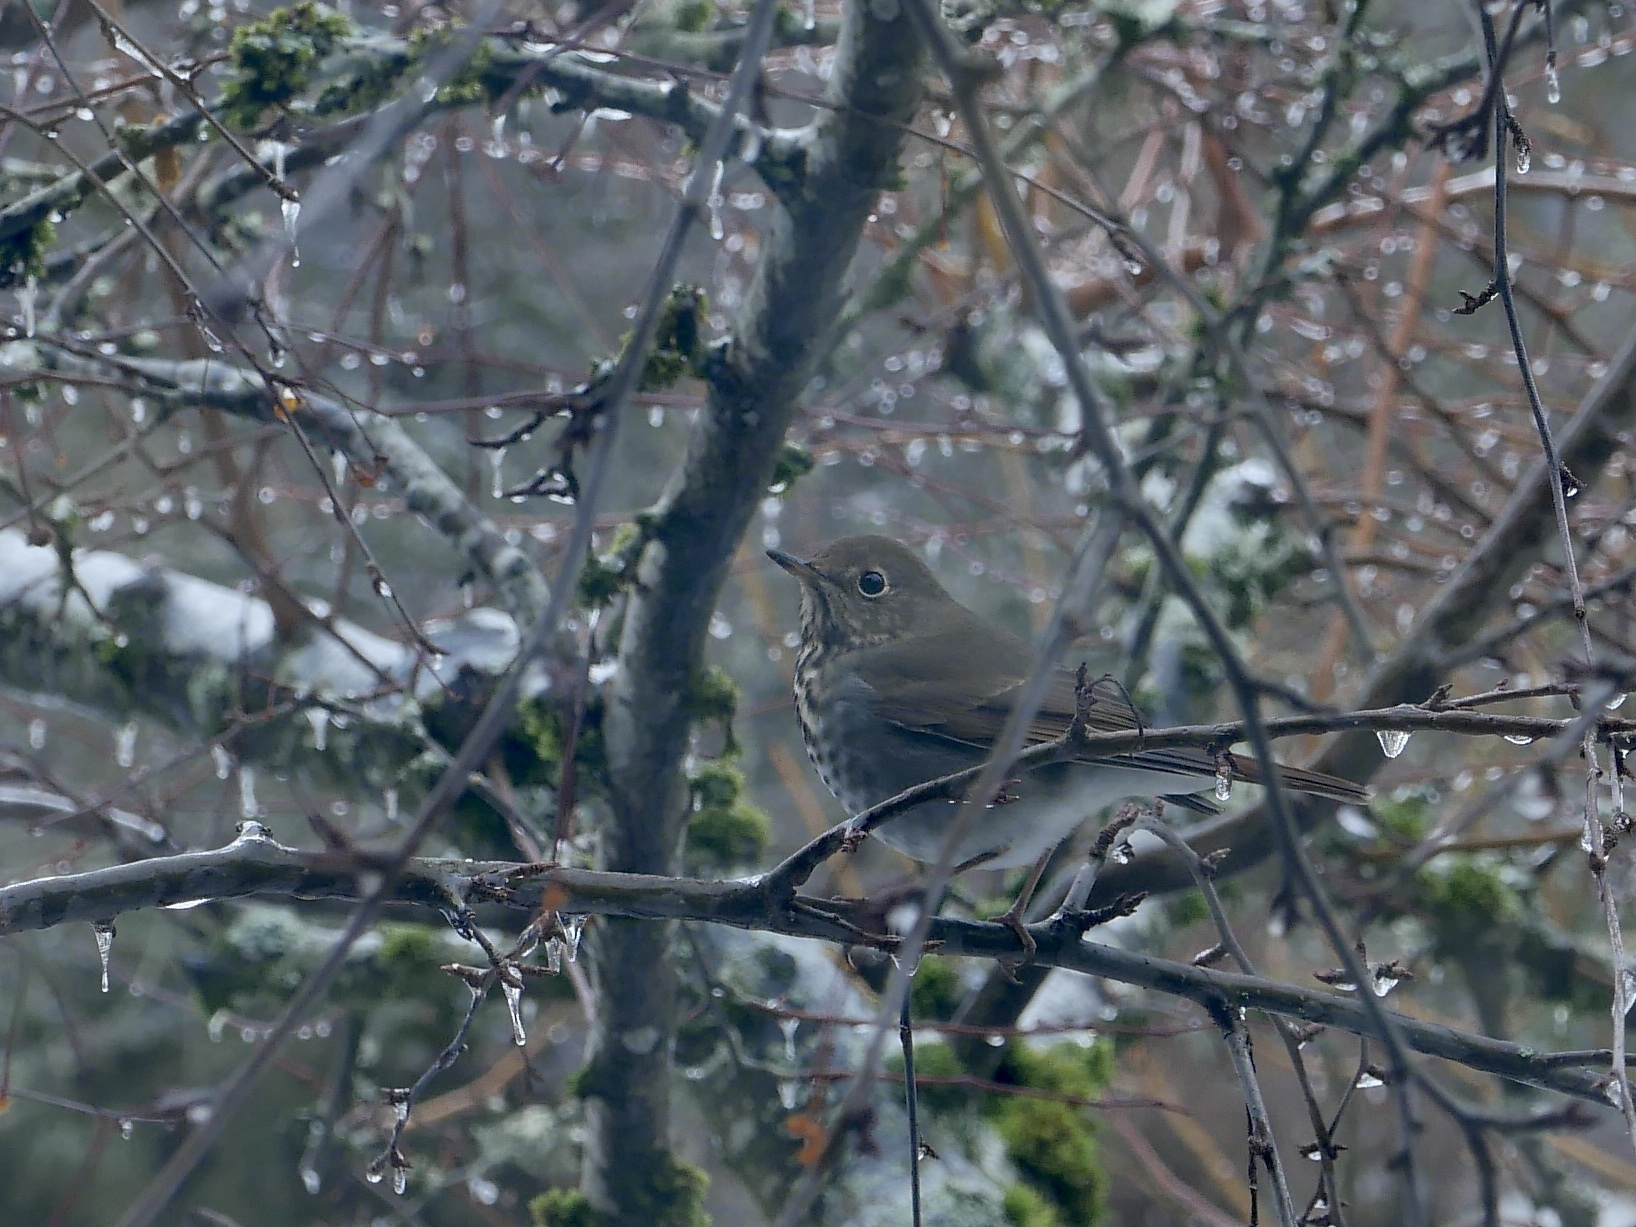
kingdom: Animalia
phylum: Chordata
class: Aves
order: Passeriformes
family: Turdidae
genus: Catharus
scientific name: Catharus guttatus
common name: Hermit thrush
